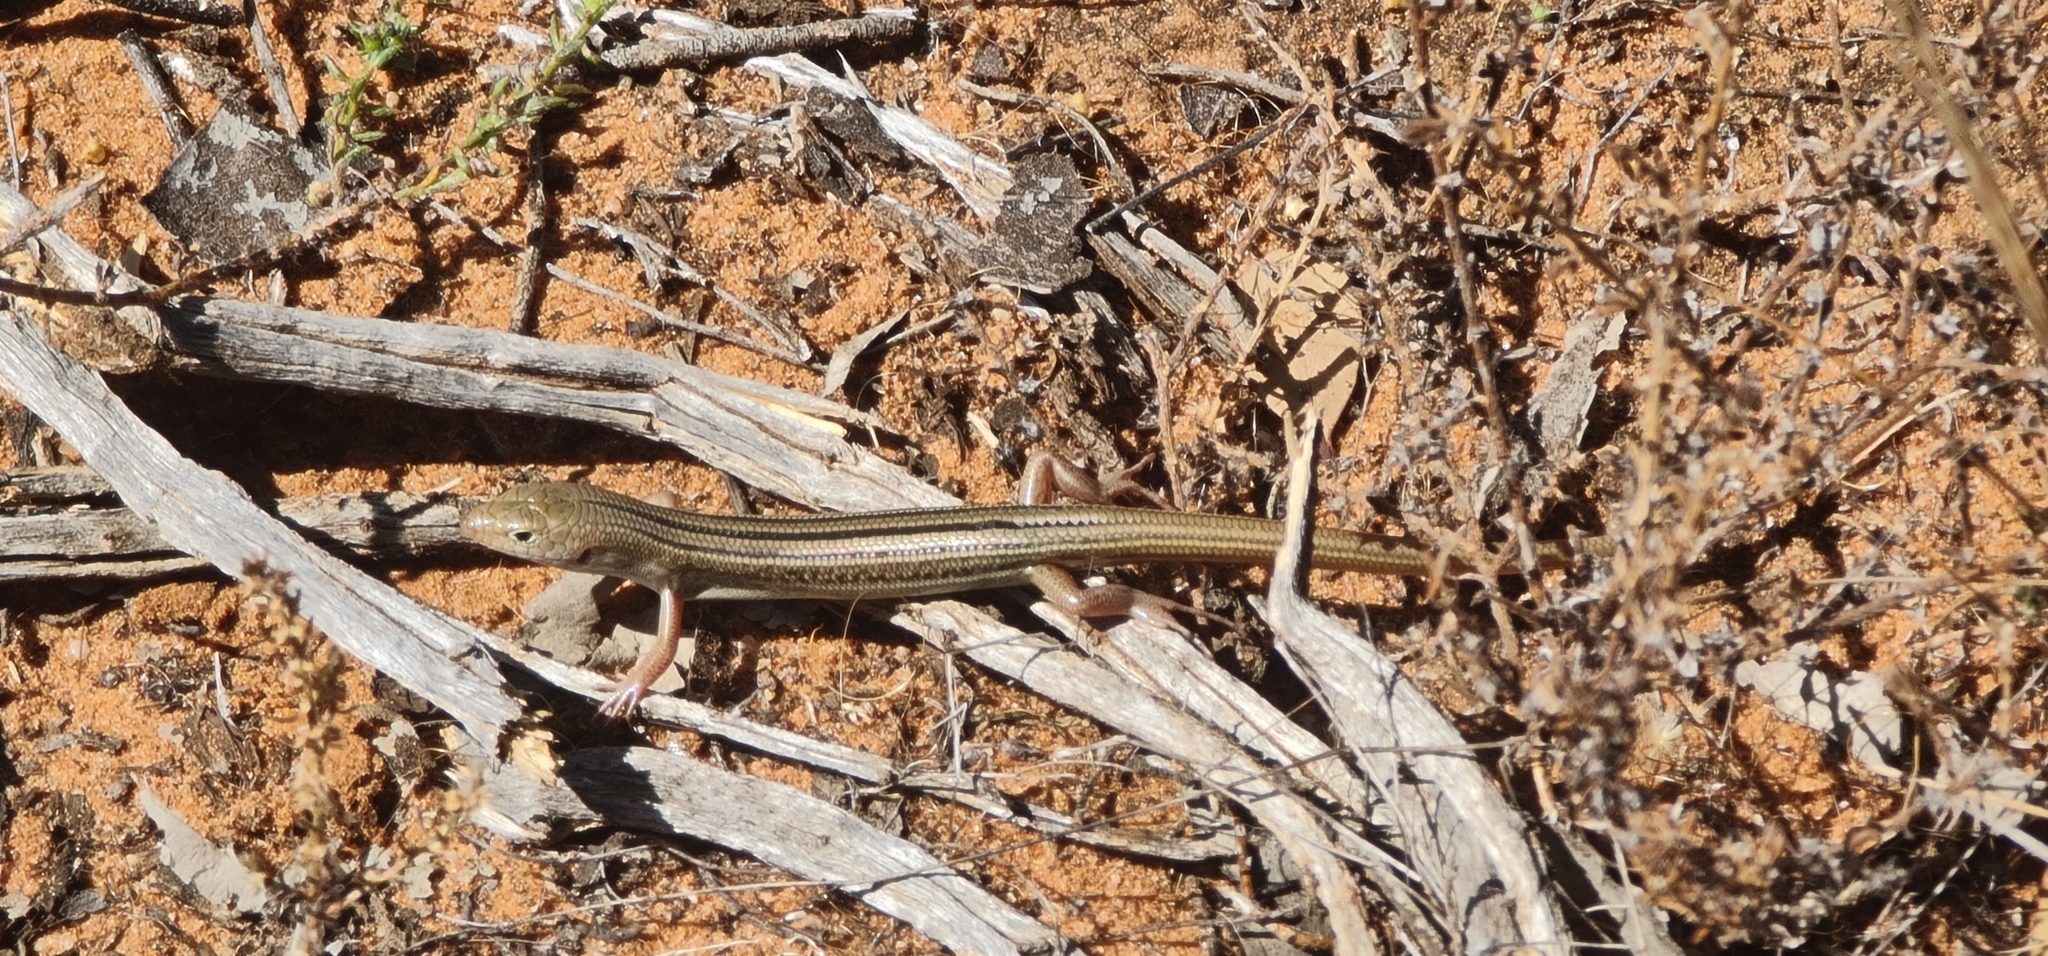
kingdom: Animalia
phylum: Chordata
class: Squamata
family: Scincidae
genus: Ctenotus
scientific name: Ctenotus inornatus
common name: Bar-shouldered ctenotus
